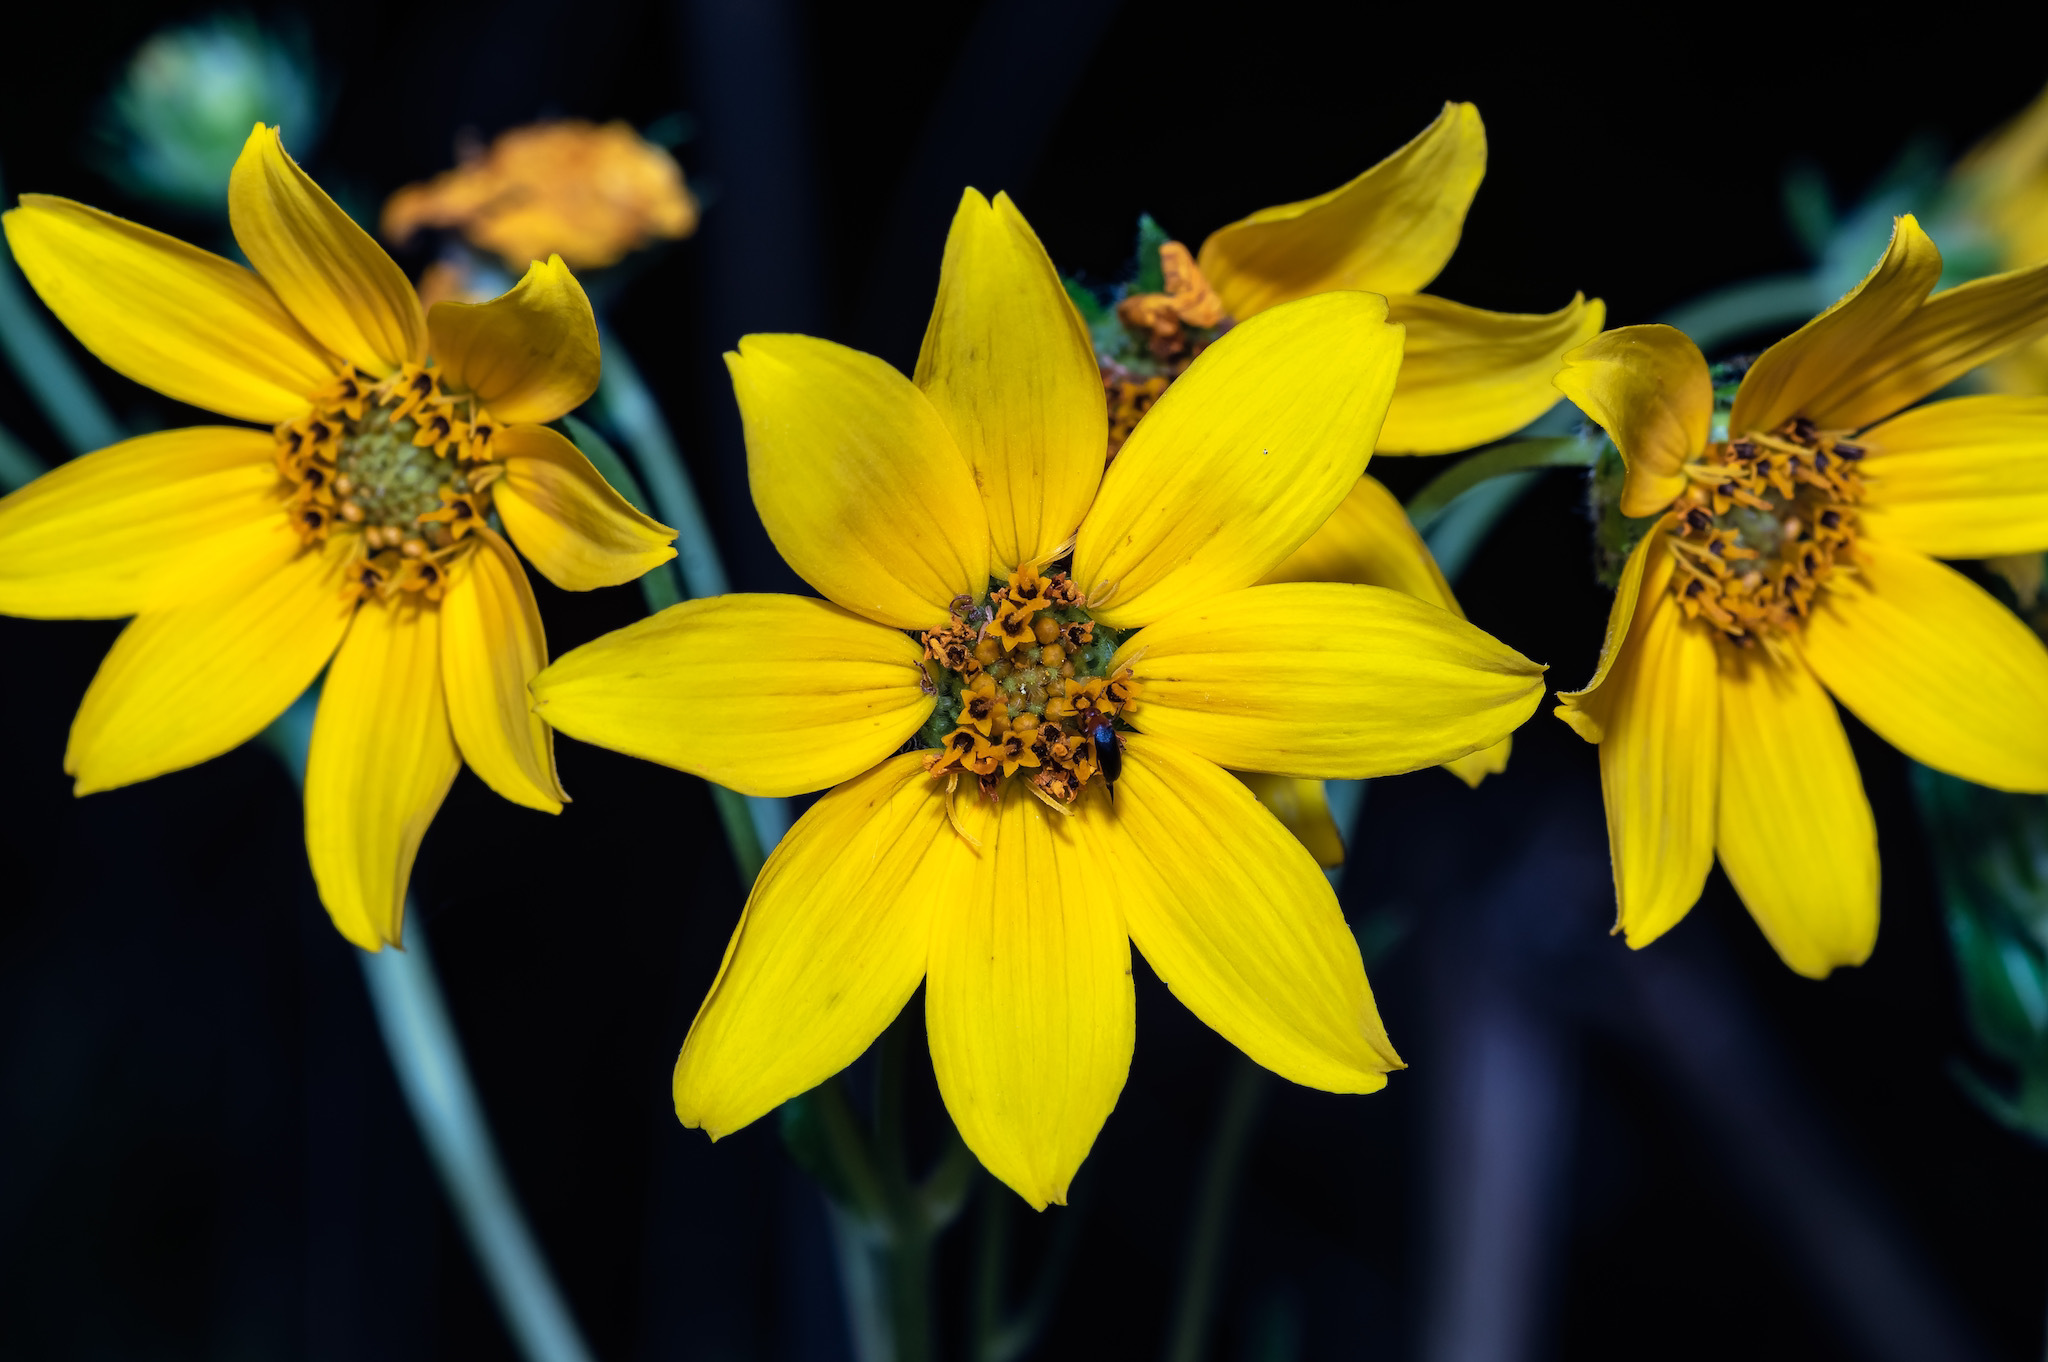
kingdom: Plantae
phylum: Tracheophyta
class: Magnoliopsida
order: Asterales
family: Asteraceae
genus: Engelmannia
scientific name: Engelmannia peristenia
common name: Engelmann's daisy
